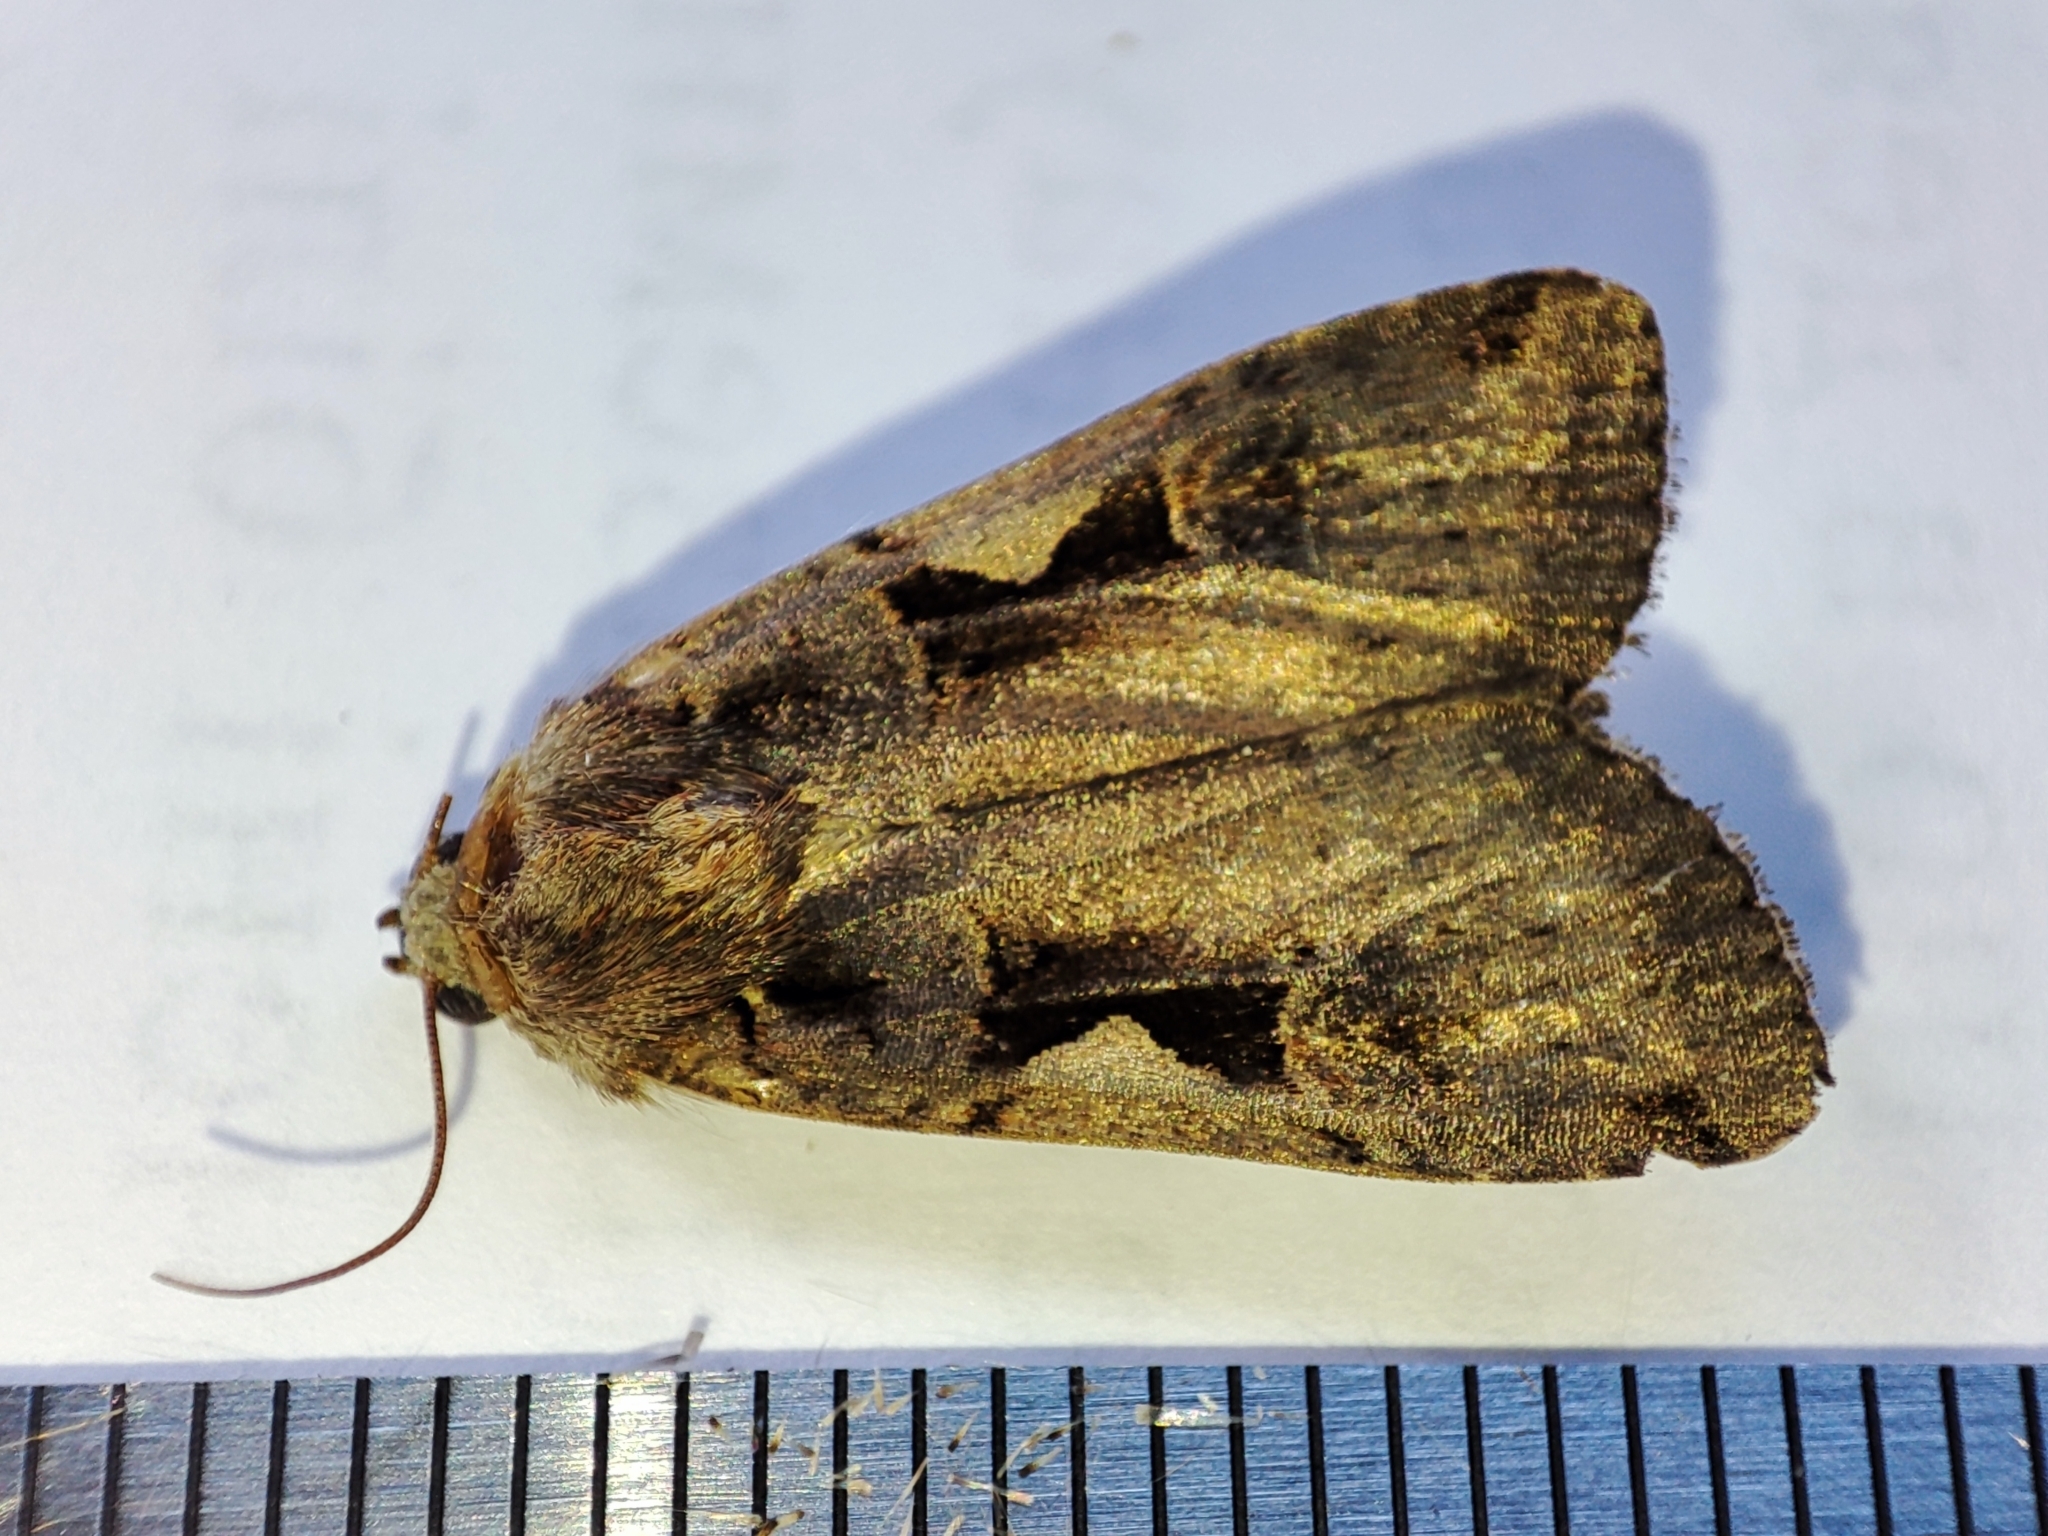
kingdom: Animalia
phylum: Arthropoda
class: Insecta
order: Lepidoptera
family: Noctuidae
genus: Xestia
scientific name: Xestia c-nigrum
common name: Setaceous hebrew character
